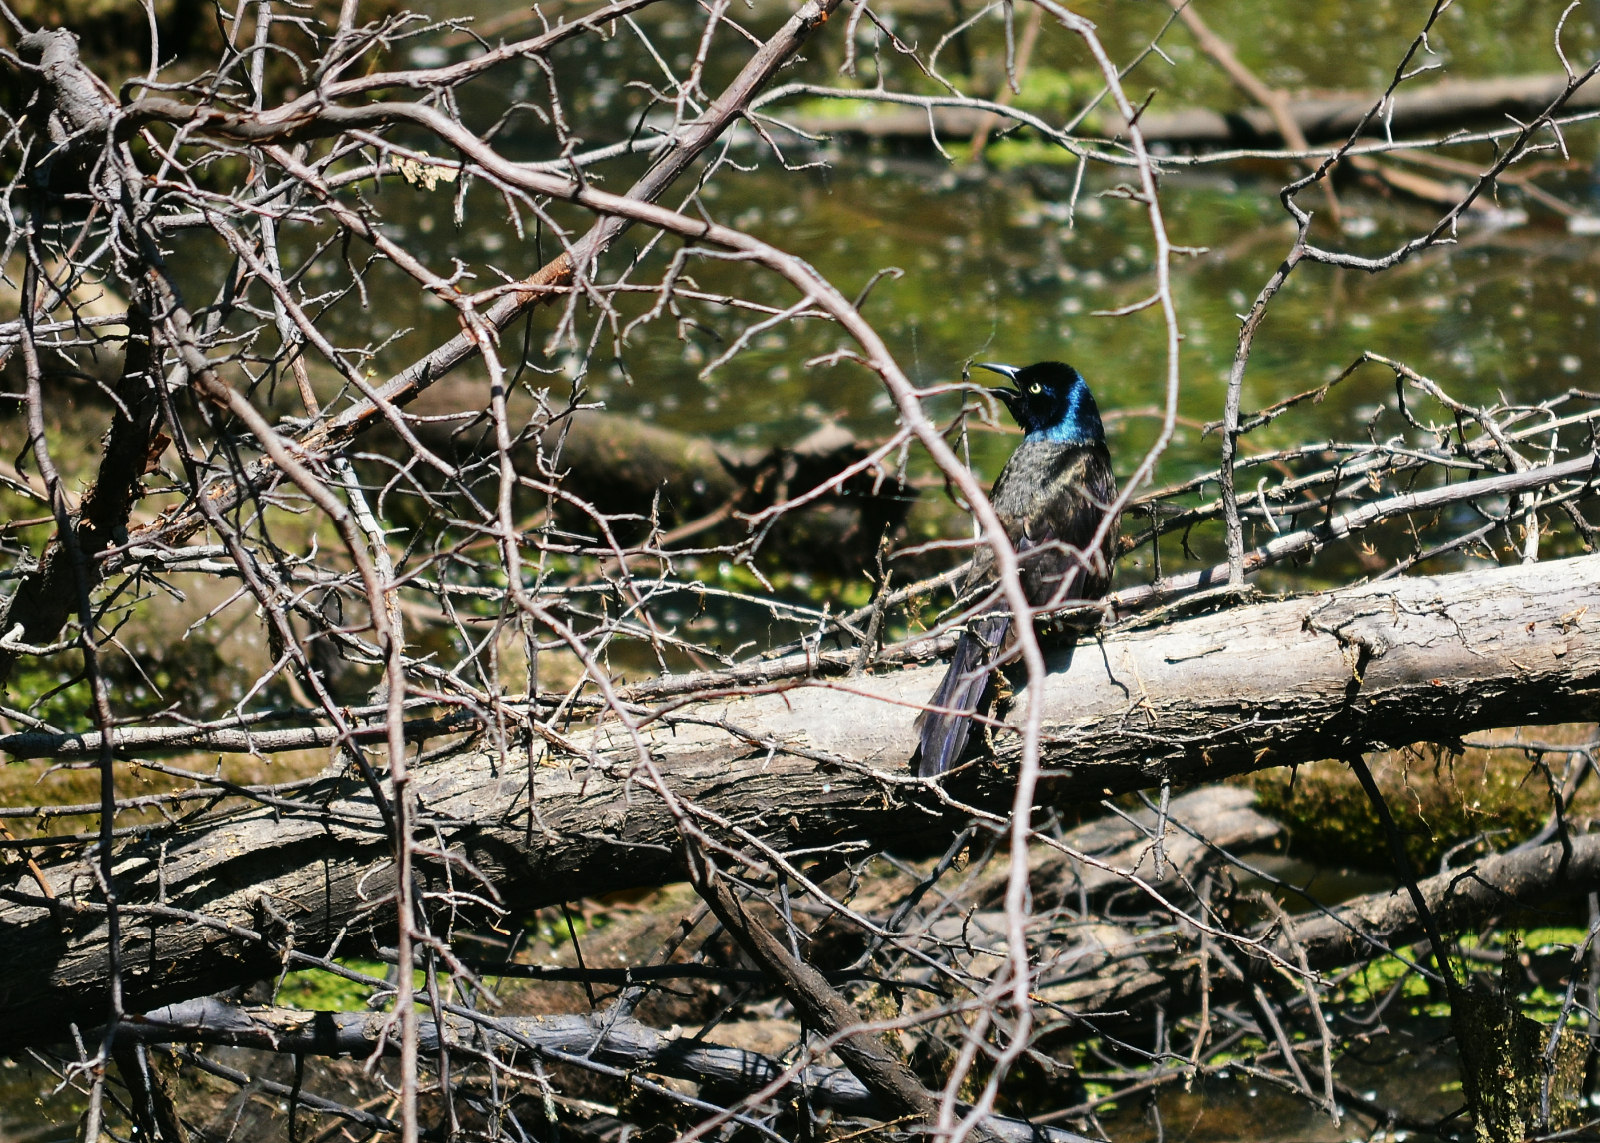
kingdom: Animalia
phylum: Chordata
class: Aves
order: Passeriformes
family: Icteridae
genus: Quiscalus
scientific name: Quiscalus quiscula
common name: Common grackle
